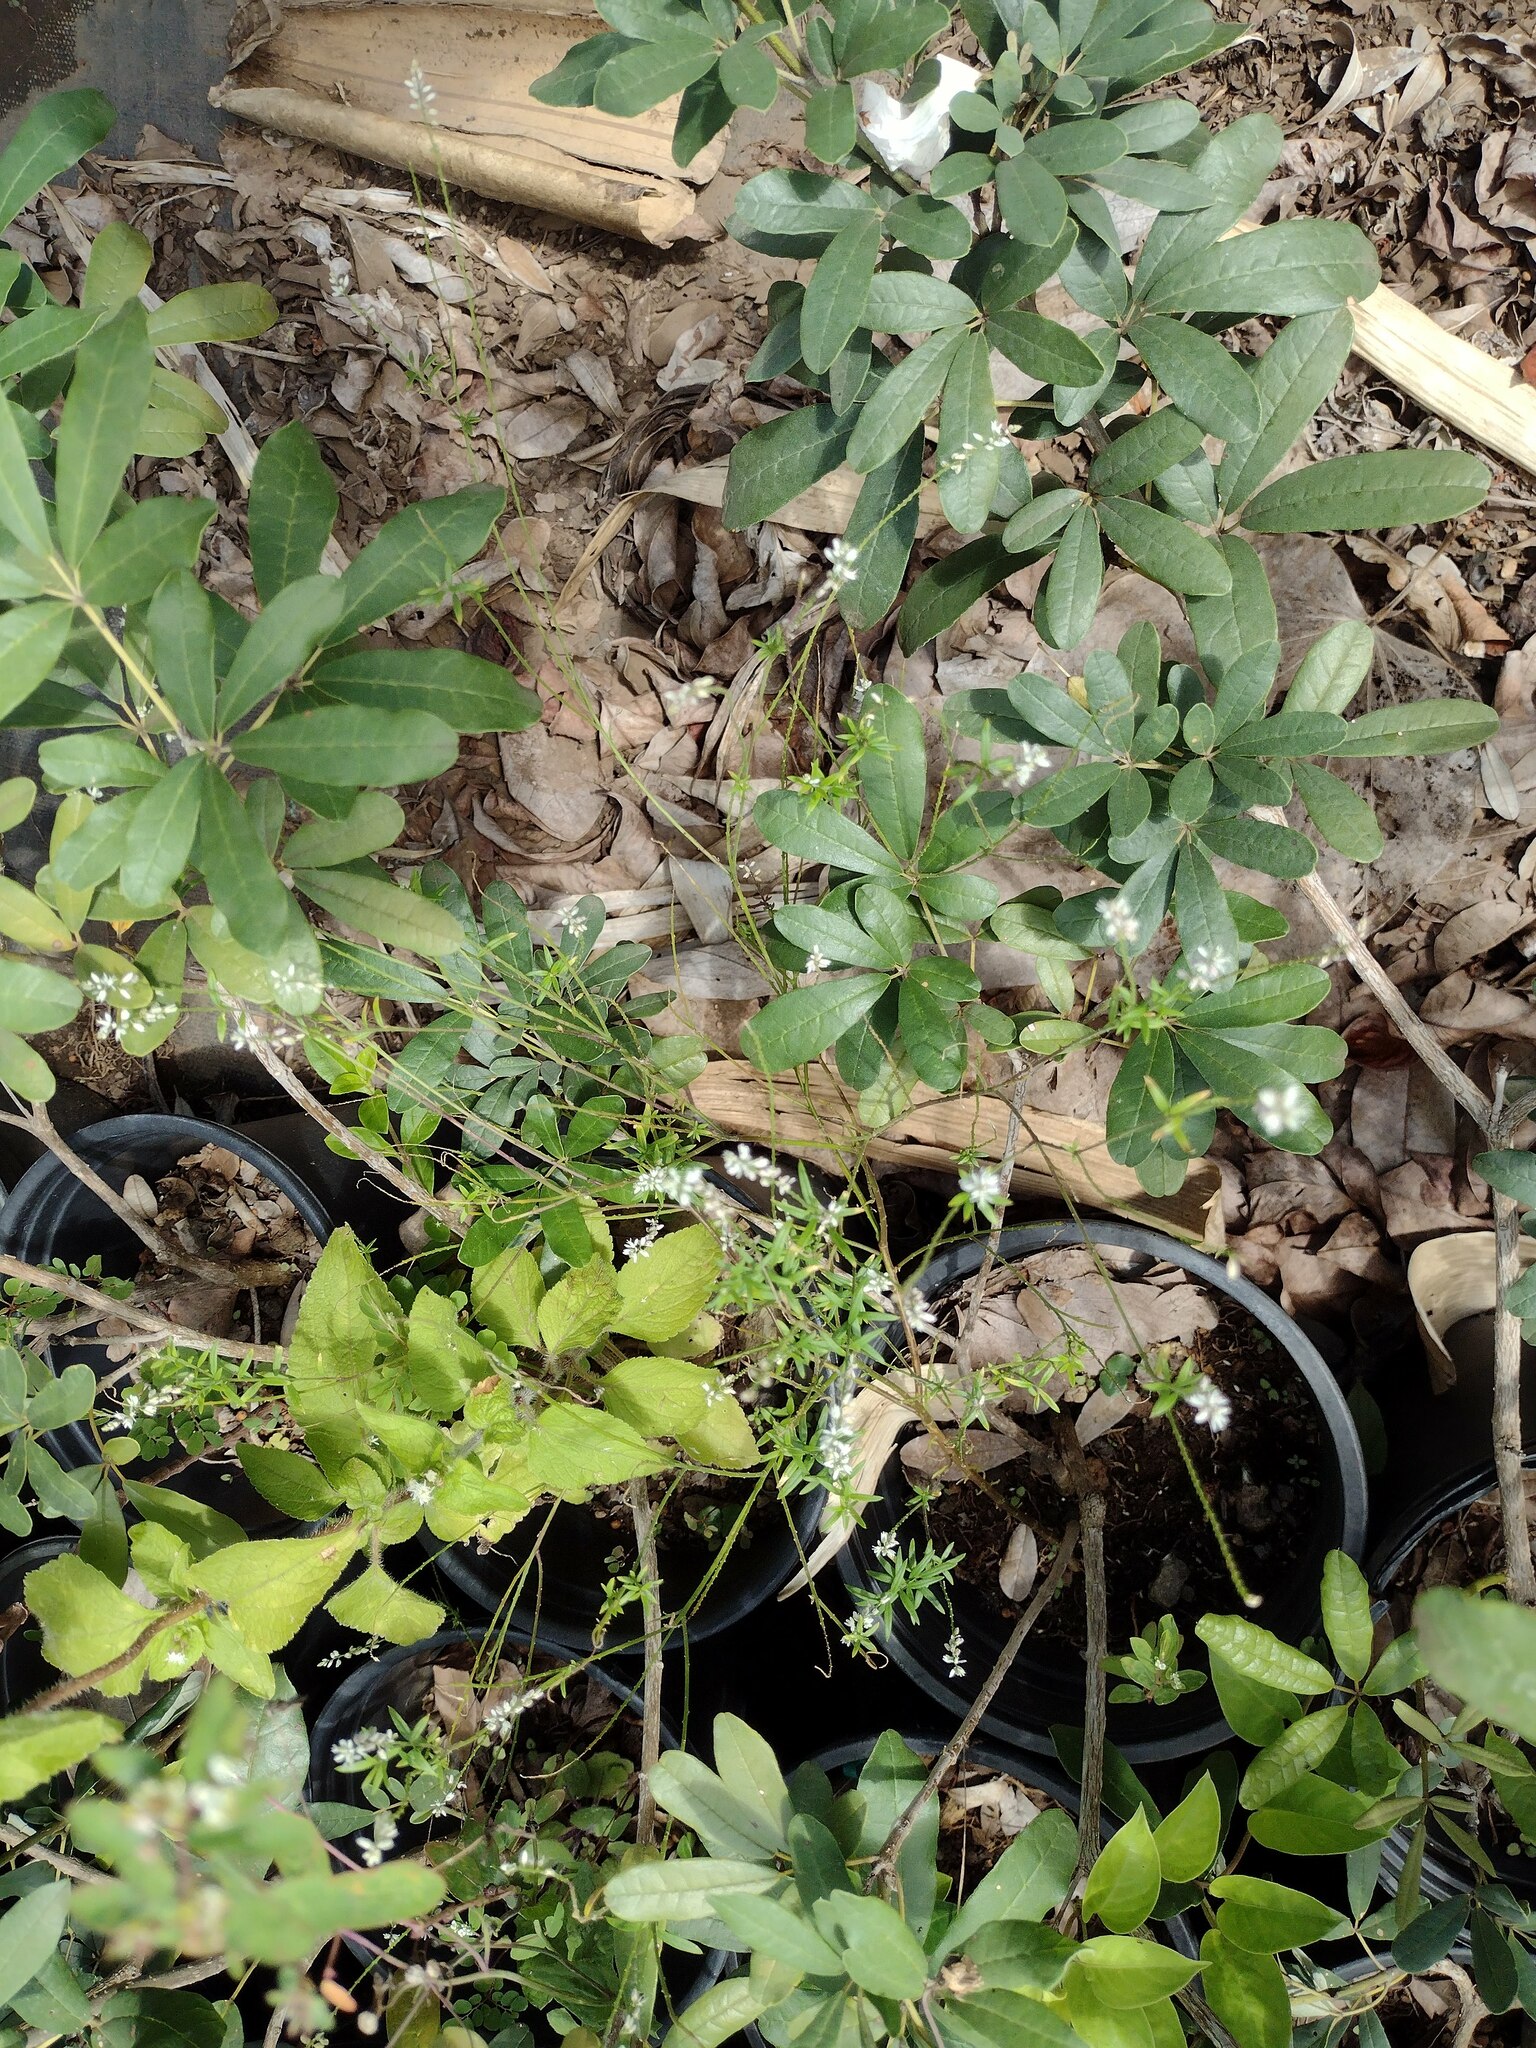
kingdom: Plantae
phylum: Tracheophyta
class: Magnoliopsida
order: Fabales
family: Polygalaceae
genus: Polygala
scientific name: Polygala paniculata
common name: Orosne
